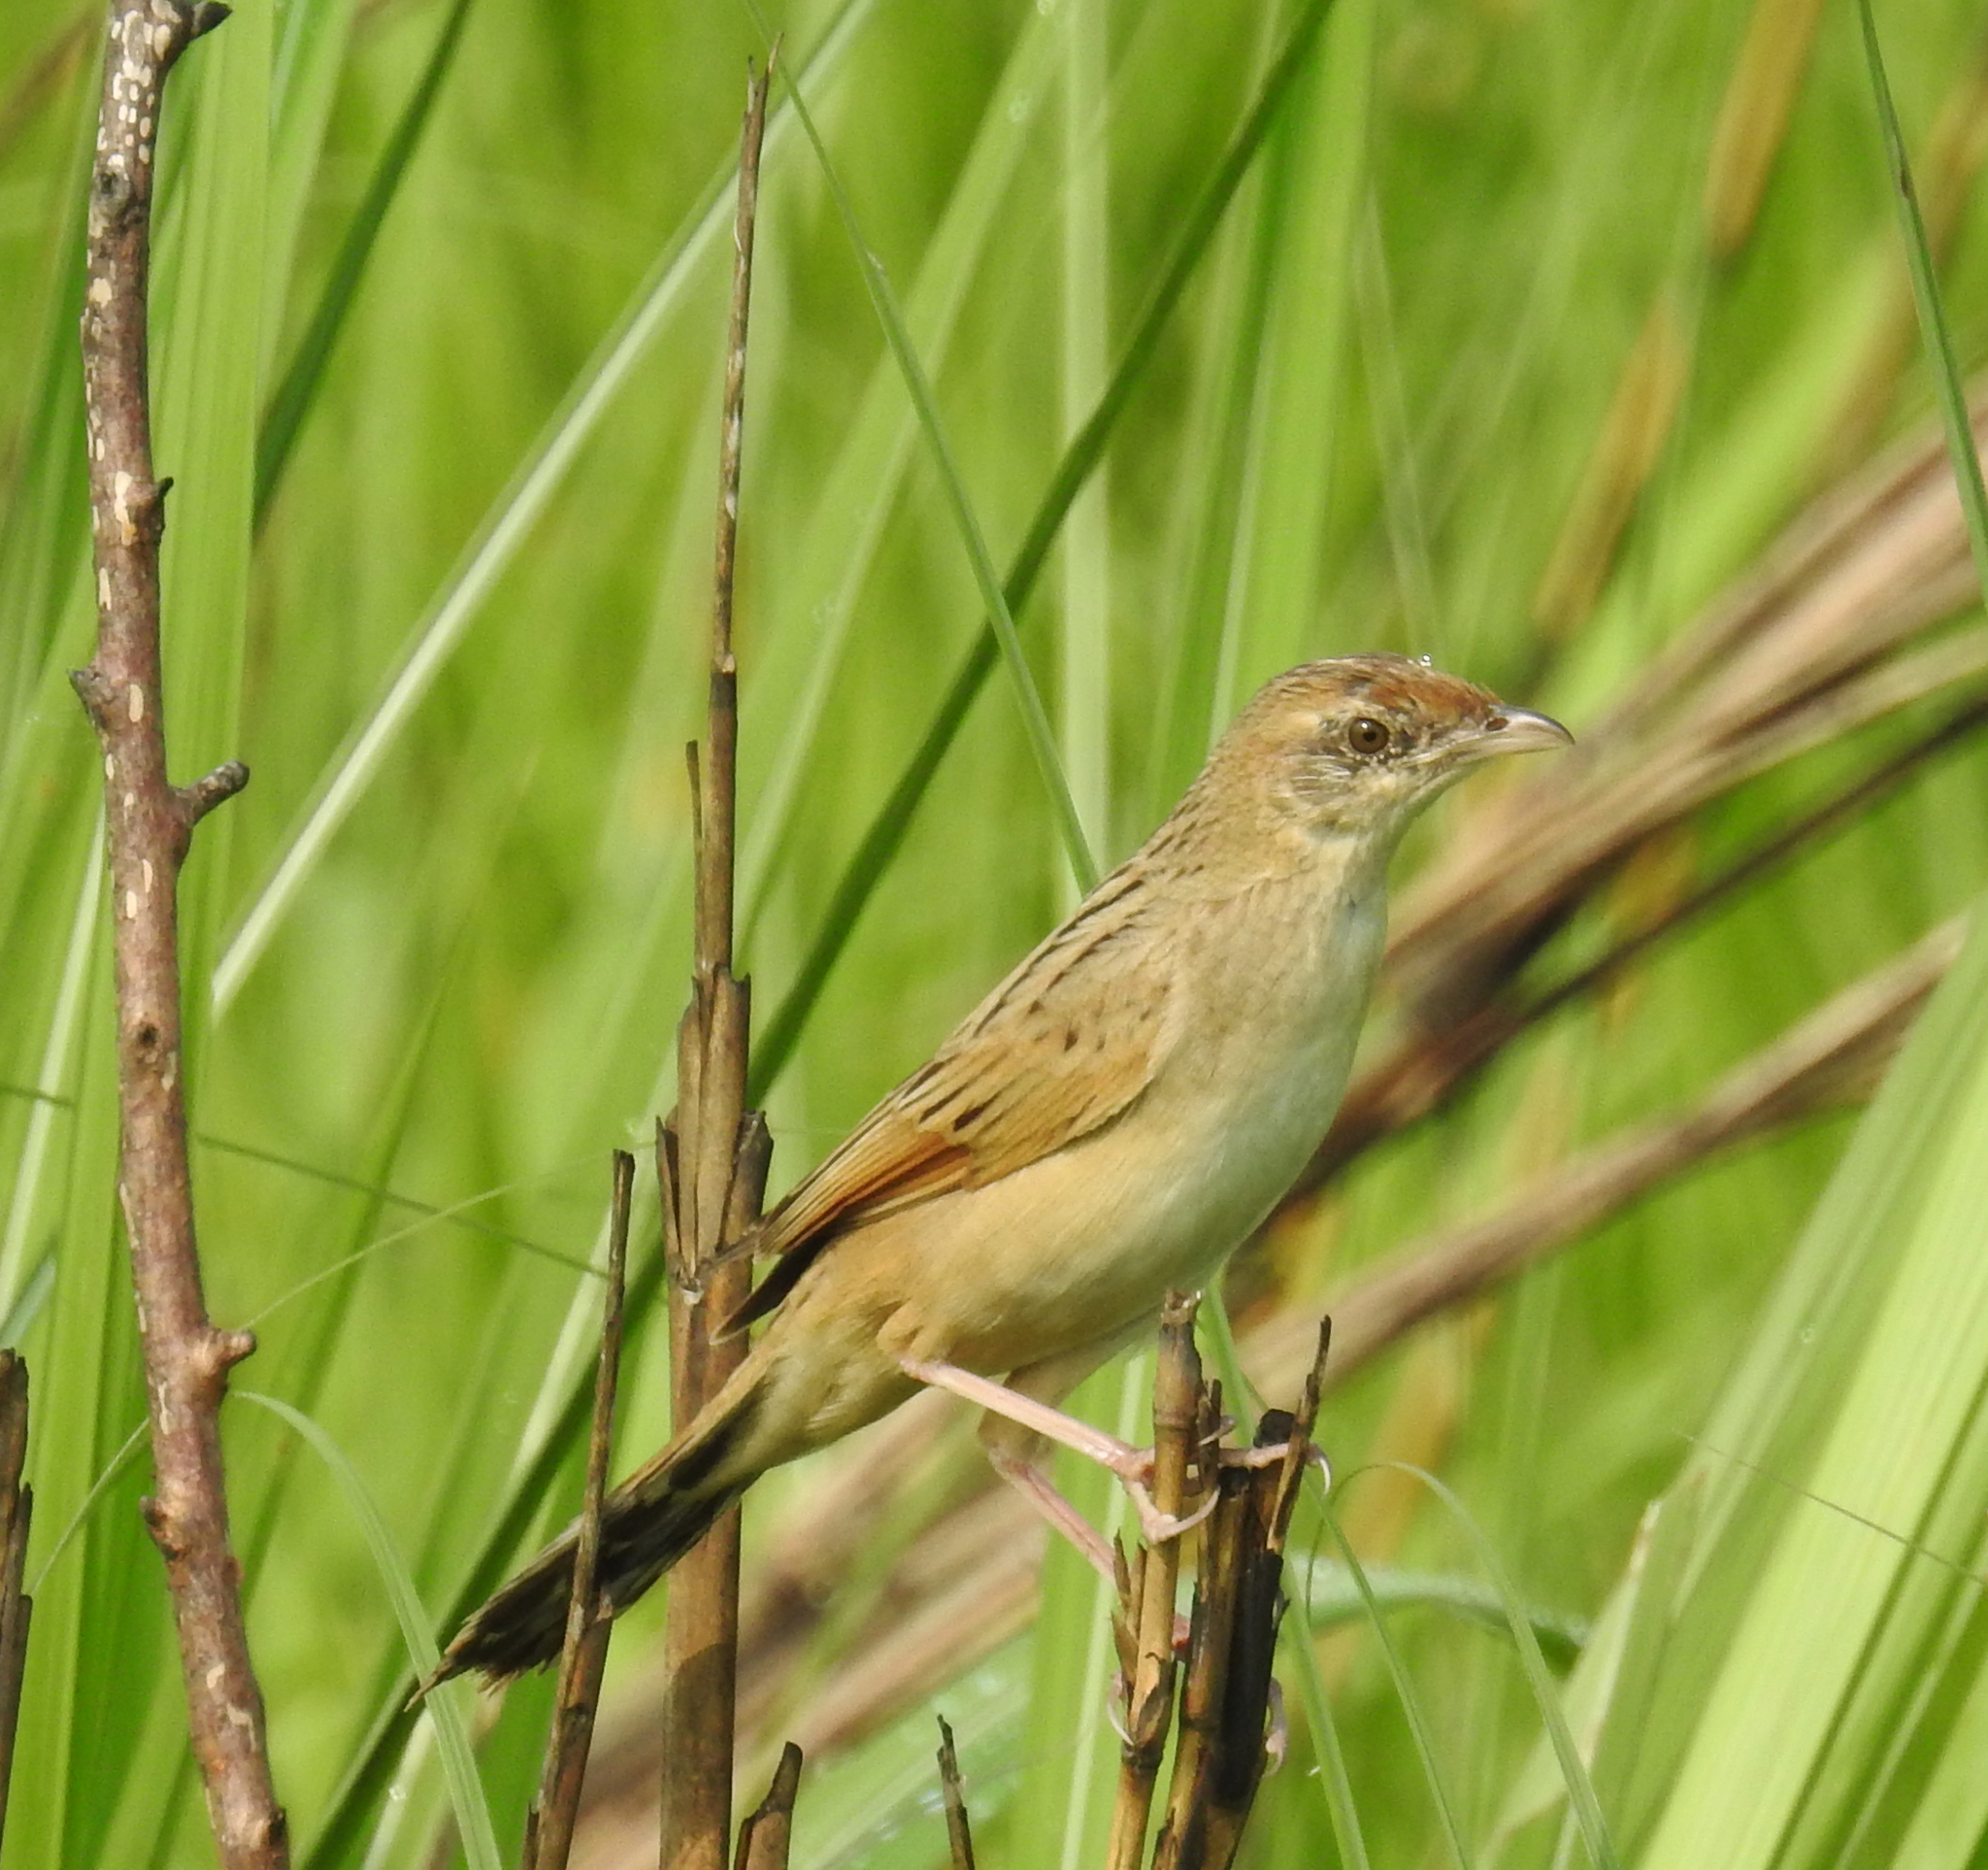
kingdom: Animalia
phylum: Chordata
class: Aves
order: Passeriformes
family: Locustellidae
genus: Chaetornis
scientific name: Chaetornis striata
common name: Bristled grassbird
